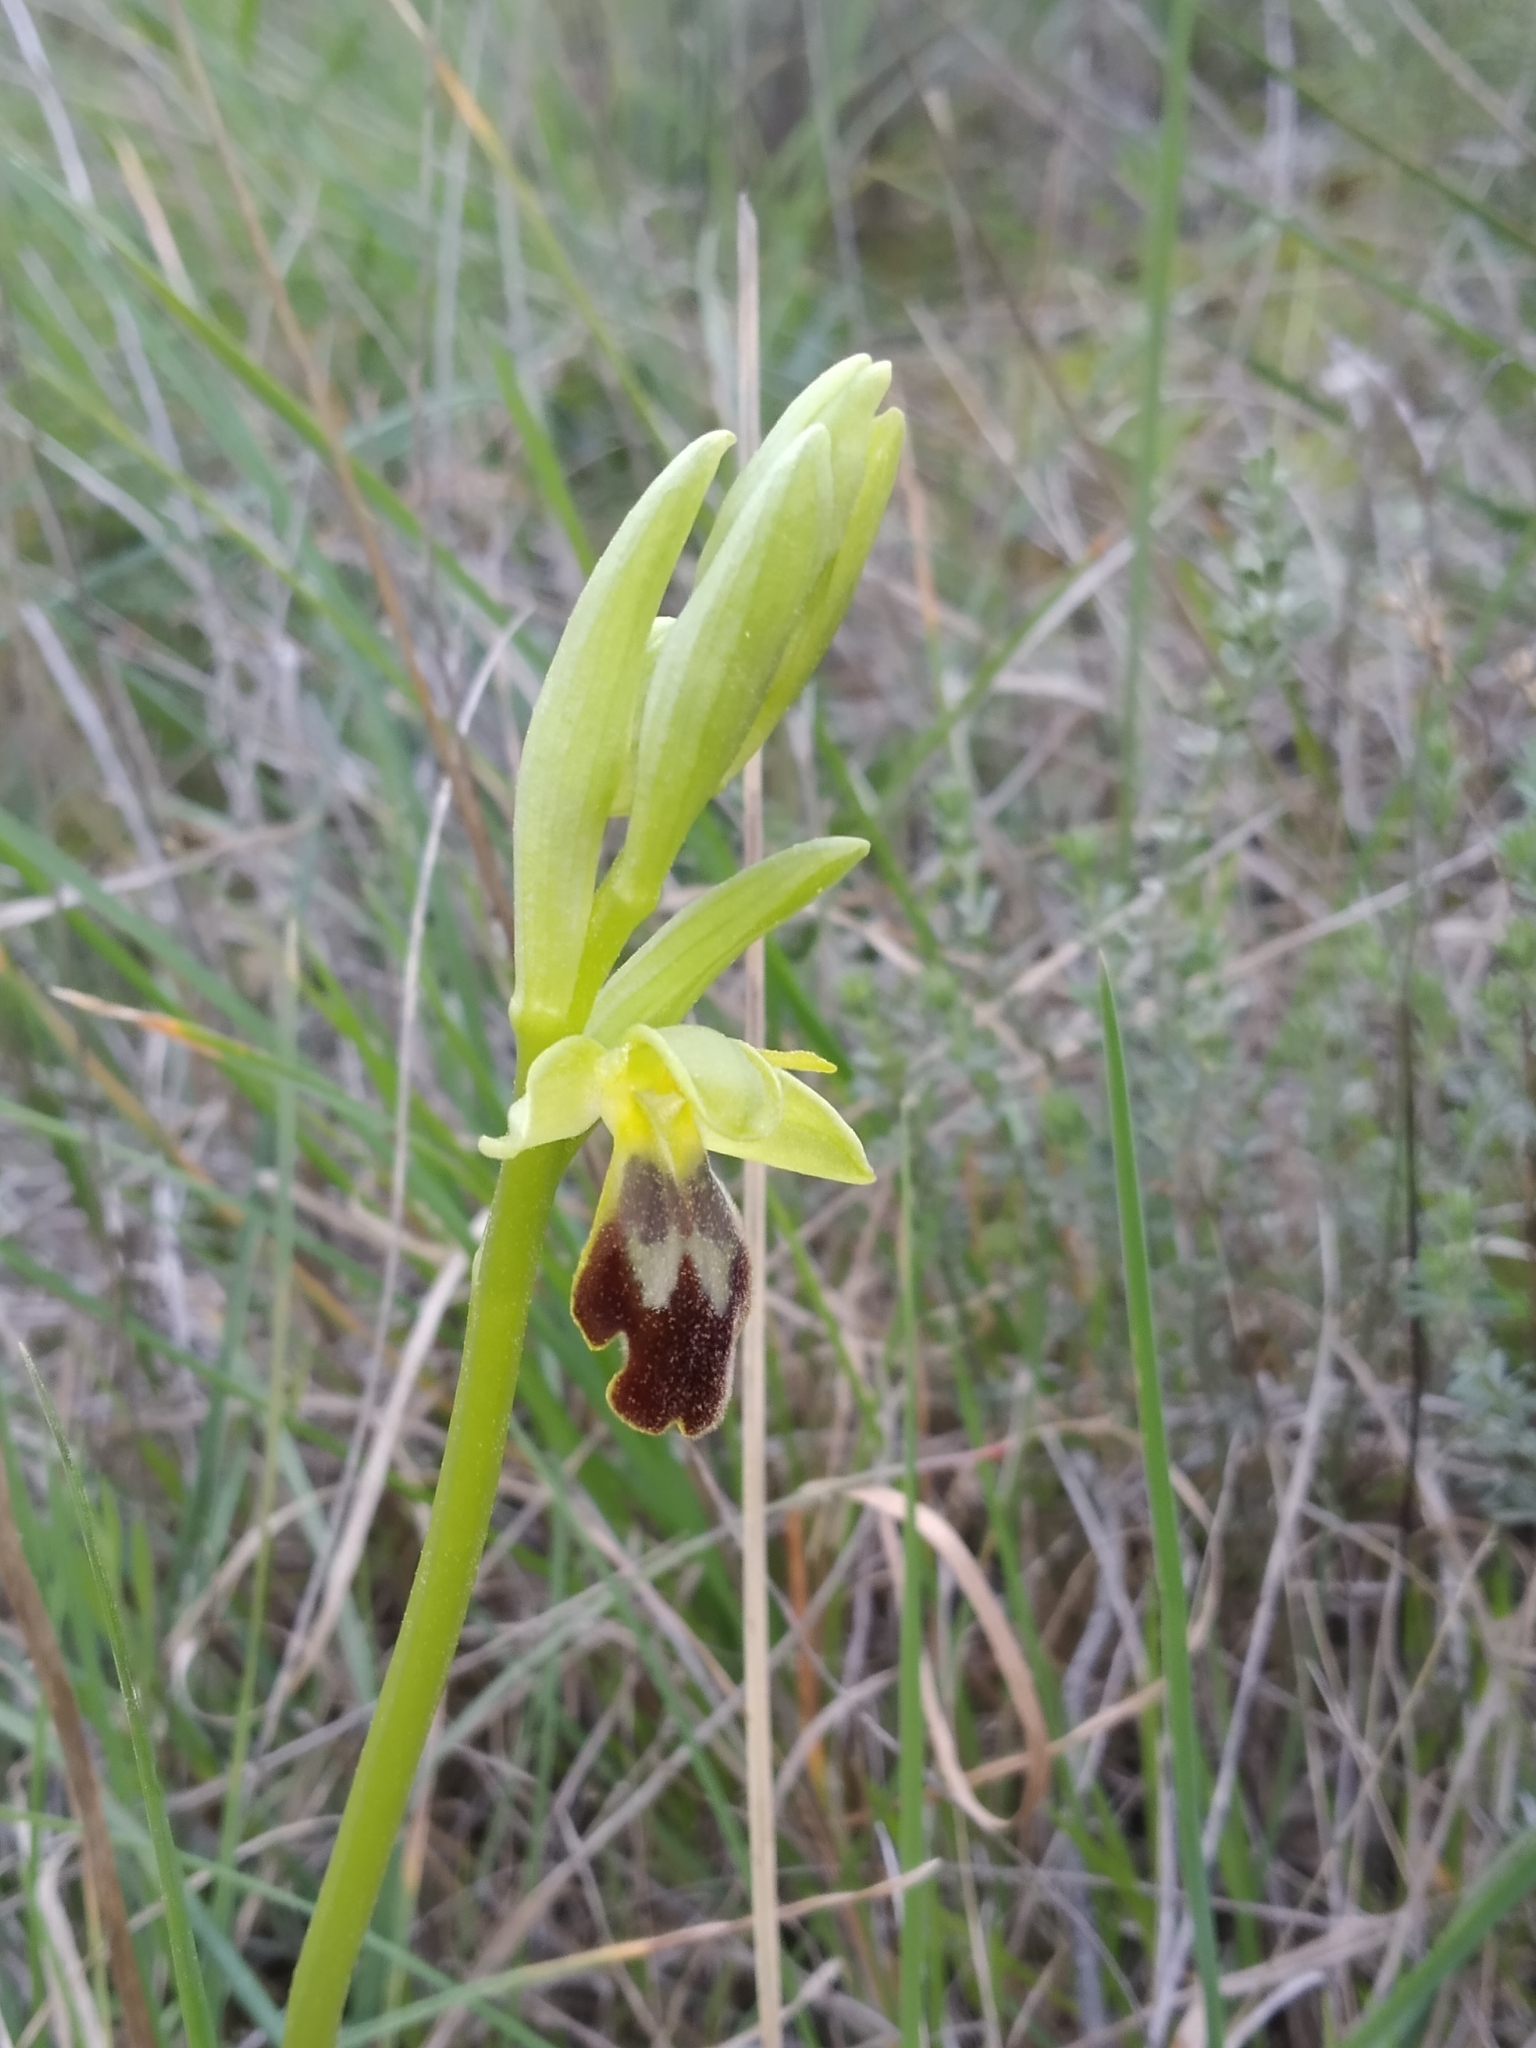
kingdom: Plantae
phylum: Tracheophyta
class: Liliopsida
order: Asparagales
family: Orchidaceae
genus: Ophrys
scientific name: Ophrys fusca
